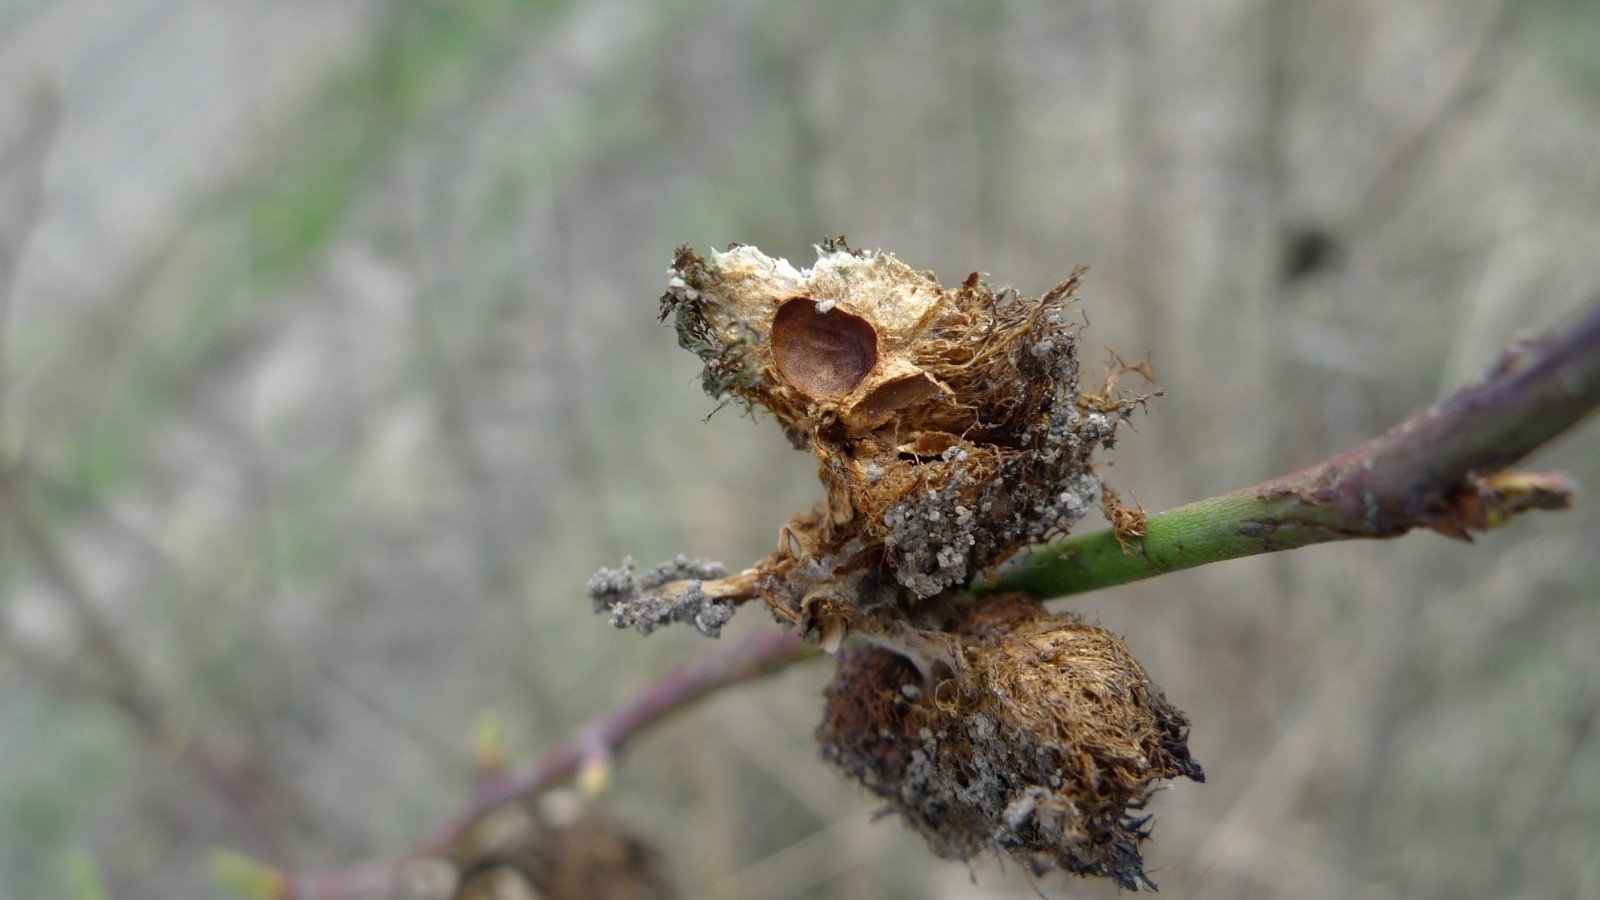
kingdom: Animalia
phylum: Arthropoda
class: Insecta
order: Hymenoptera
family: Cynipidae
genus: Diplolepis
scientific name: Diplolepis rosae
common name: Bedeguar gall
